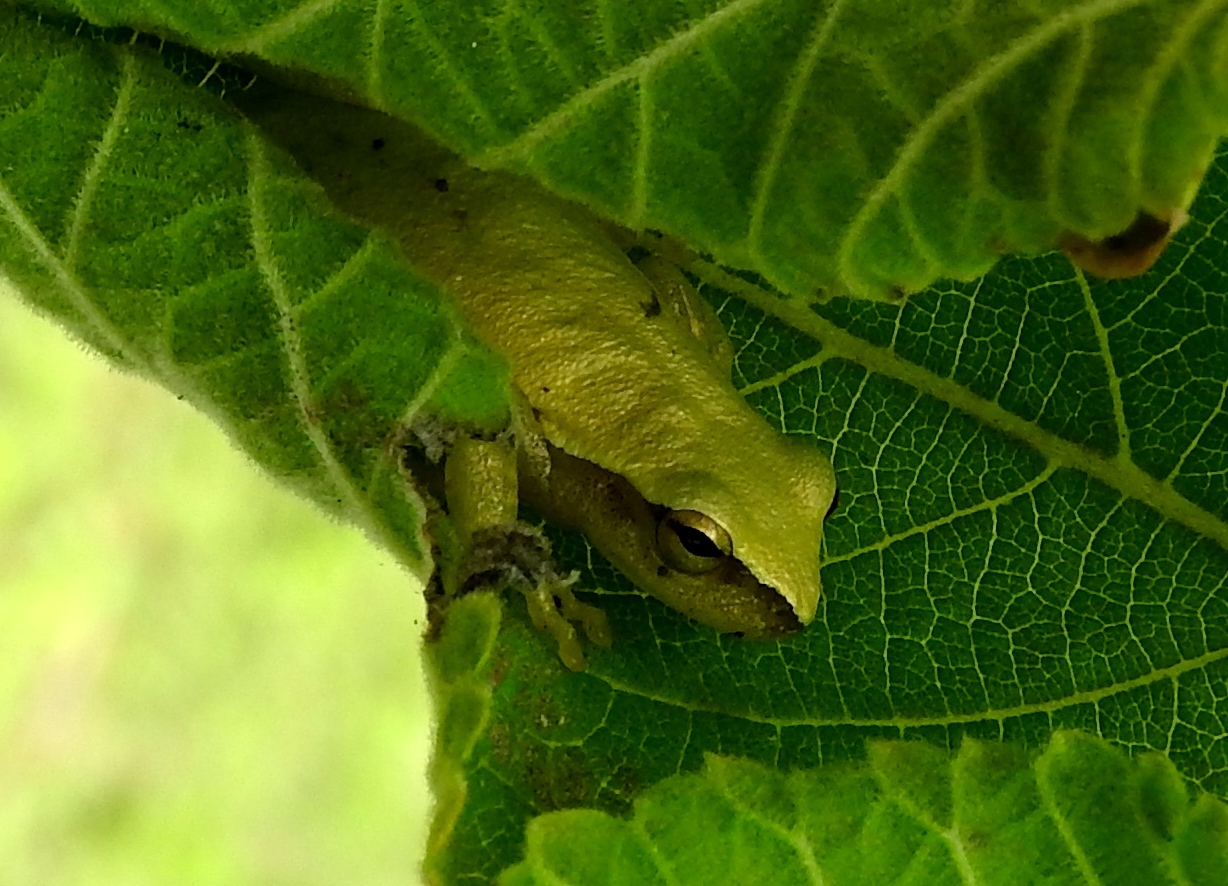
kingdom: Animalia
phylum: Chordata
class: Amphibia
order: Anura
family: Hylidae
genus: Tlalocohyla
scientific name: Tlalocohyla smithii
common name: Dwarf mexican treefrog
